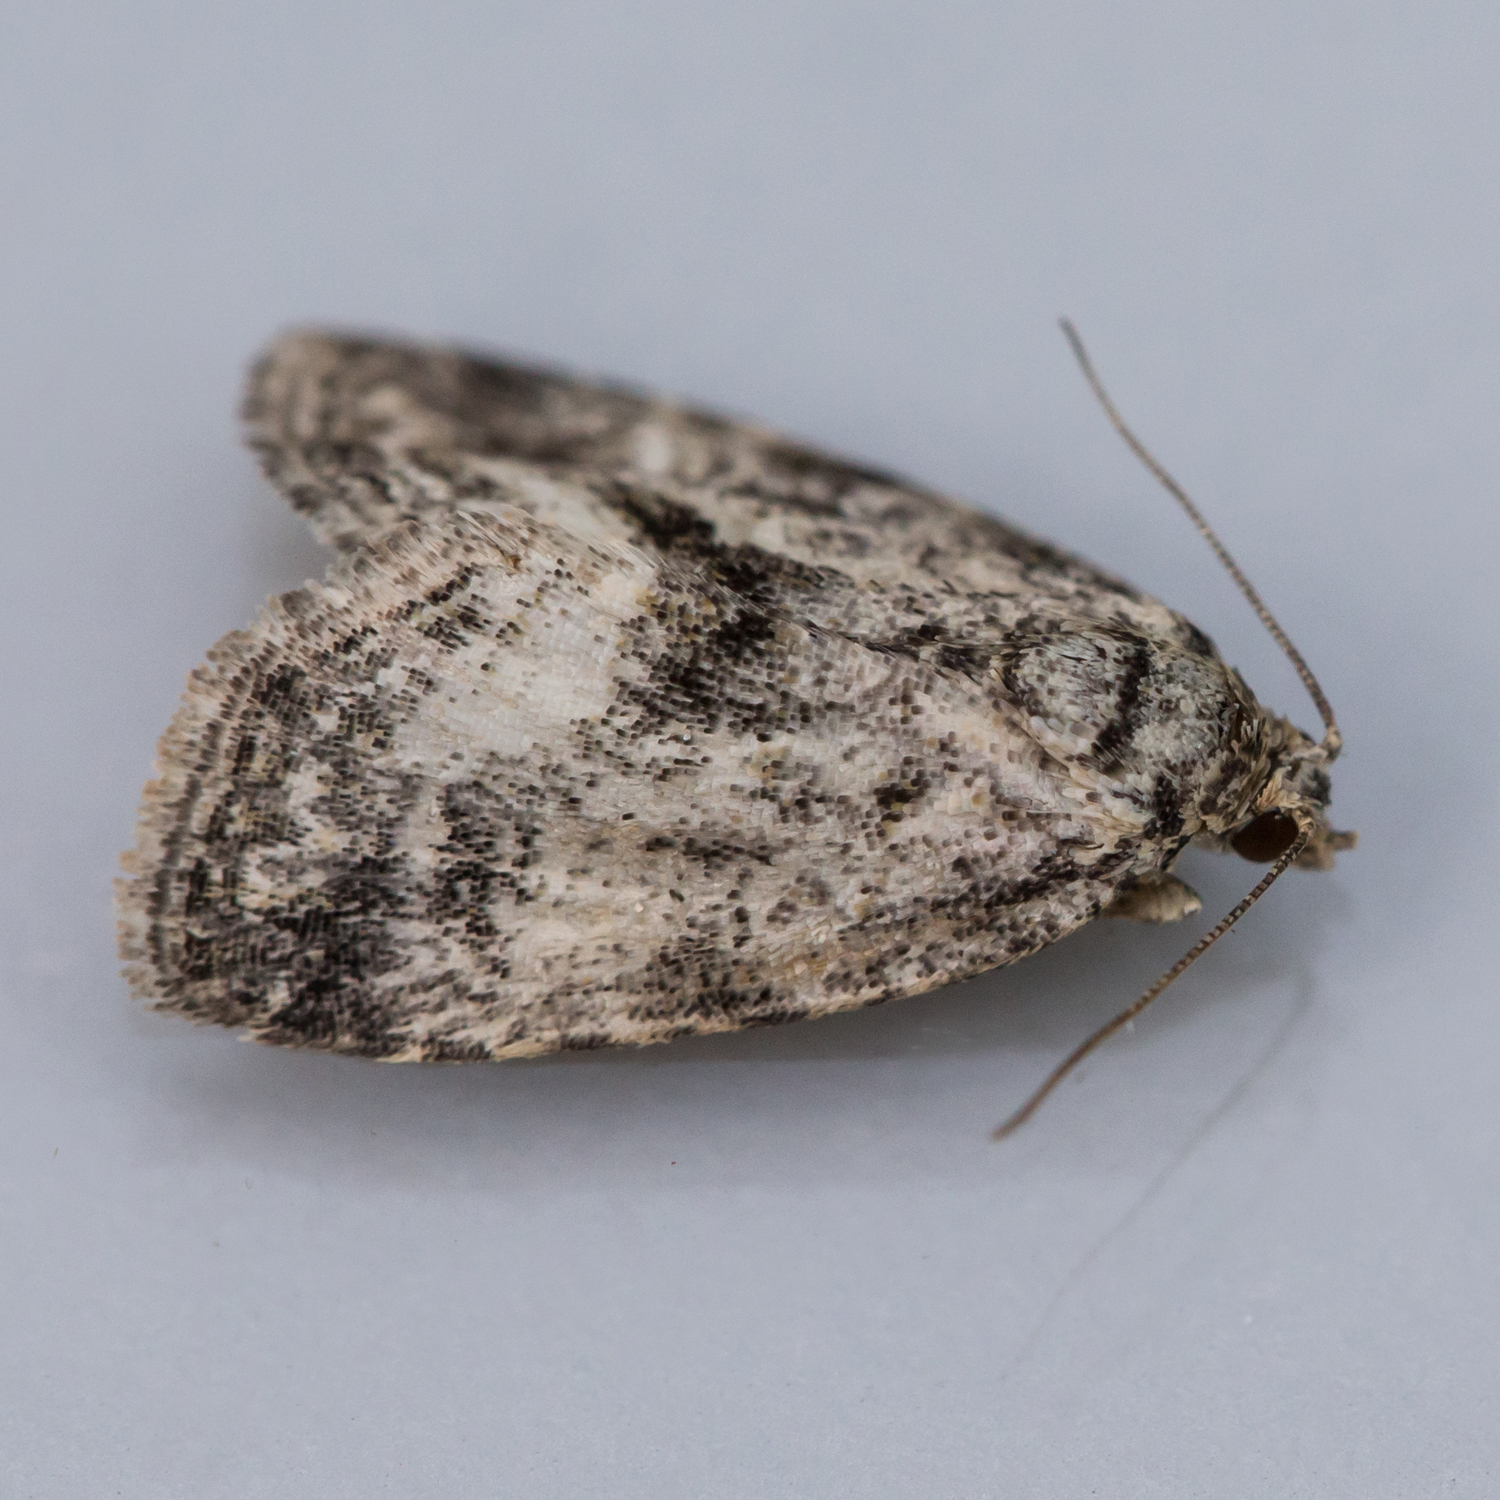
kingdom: Animalia
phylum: Arthropoda
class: Insecta
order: Lepidoptera
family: Noctuidae
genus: Protodeltote
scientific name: Protodeltote muscosula
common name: Large mossy glyph
